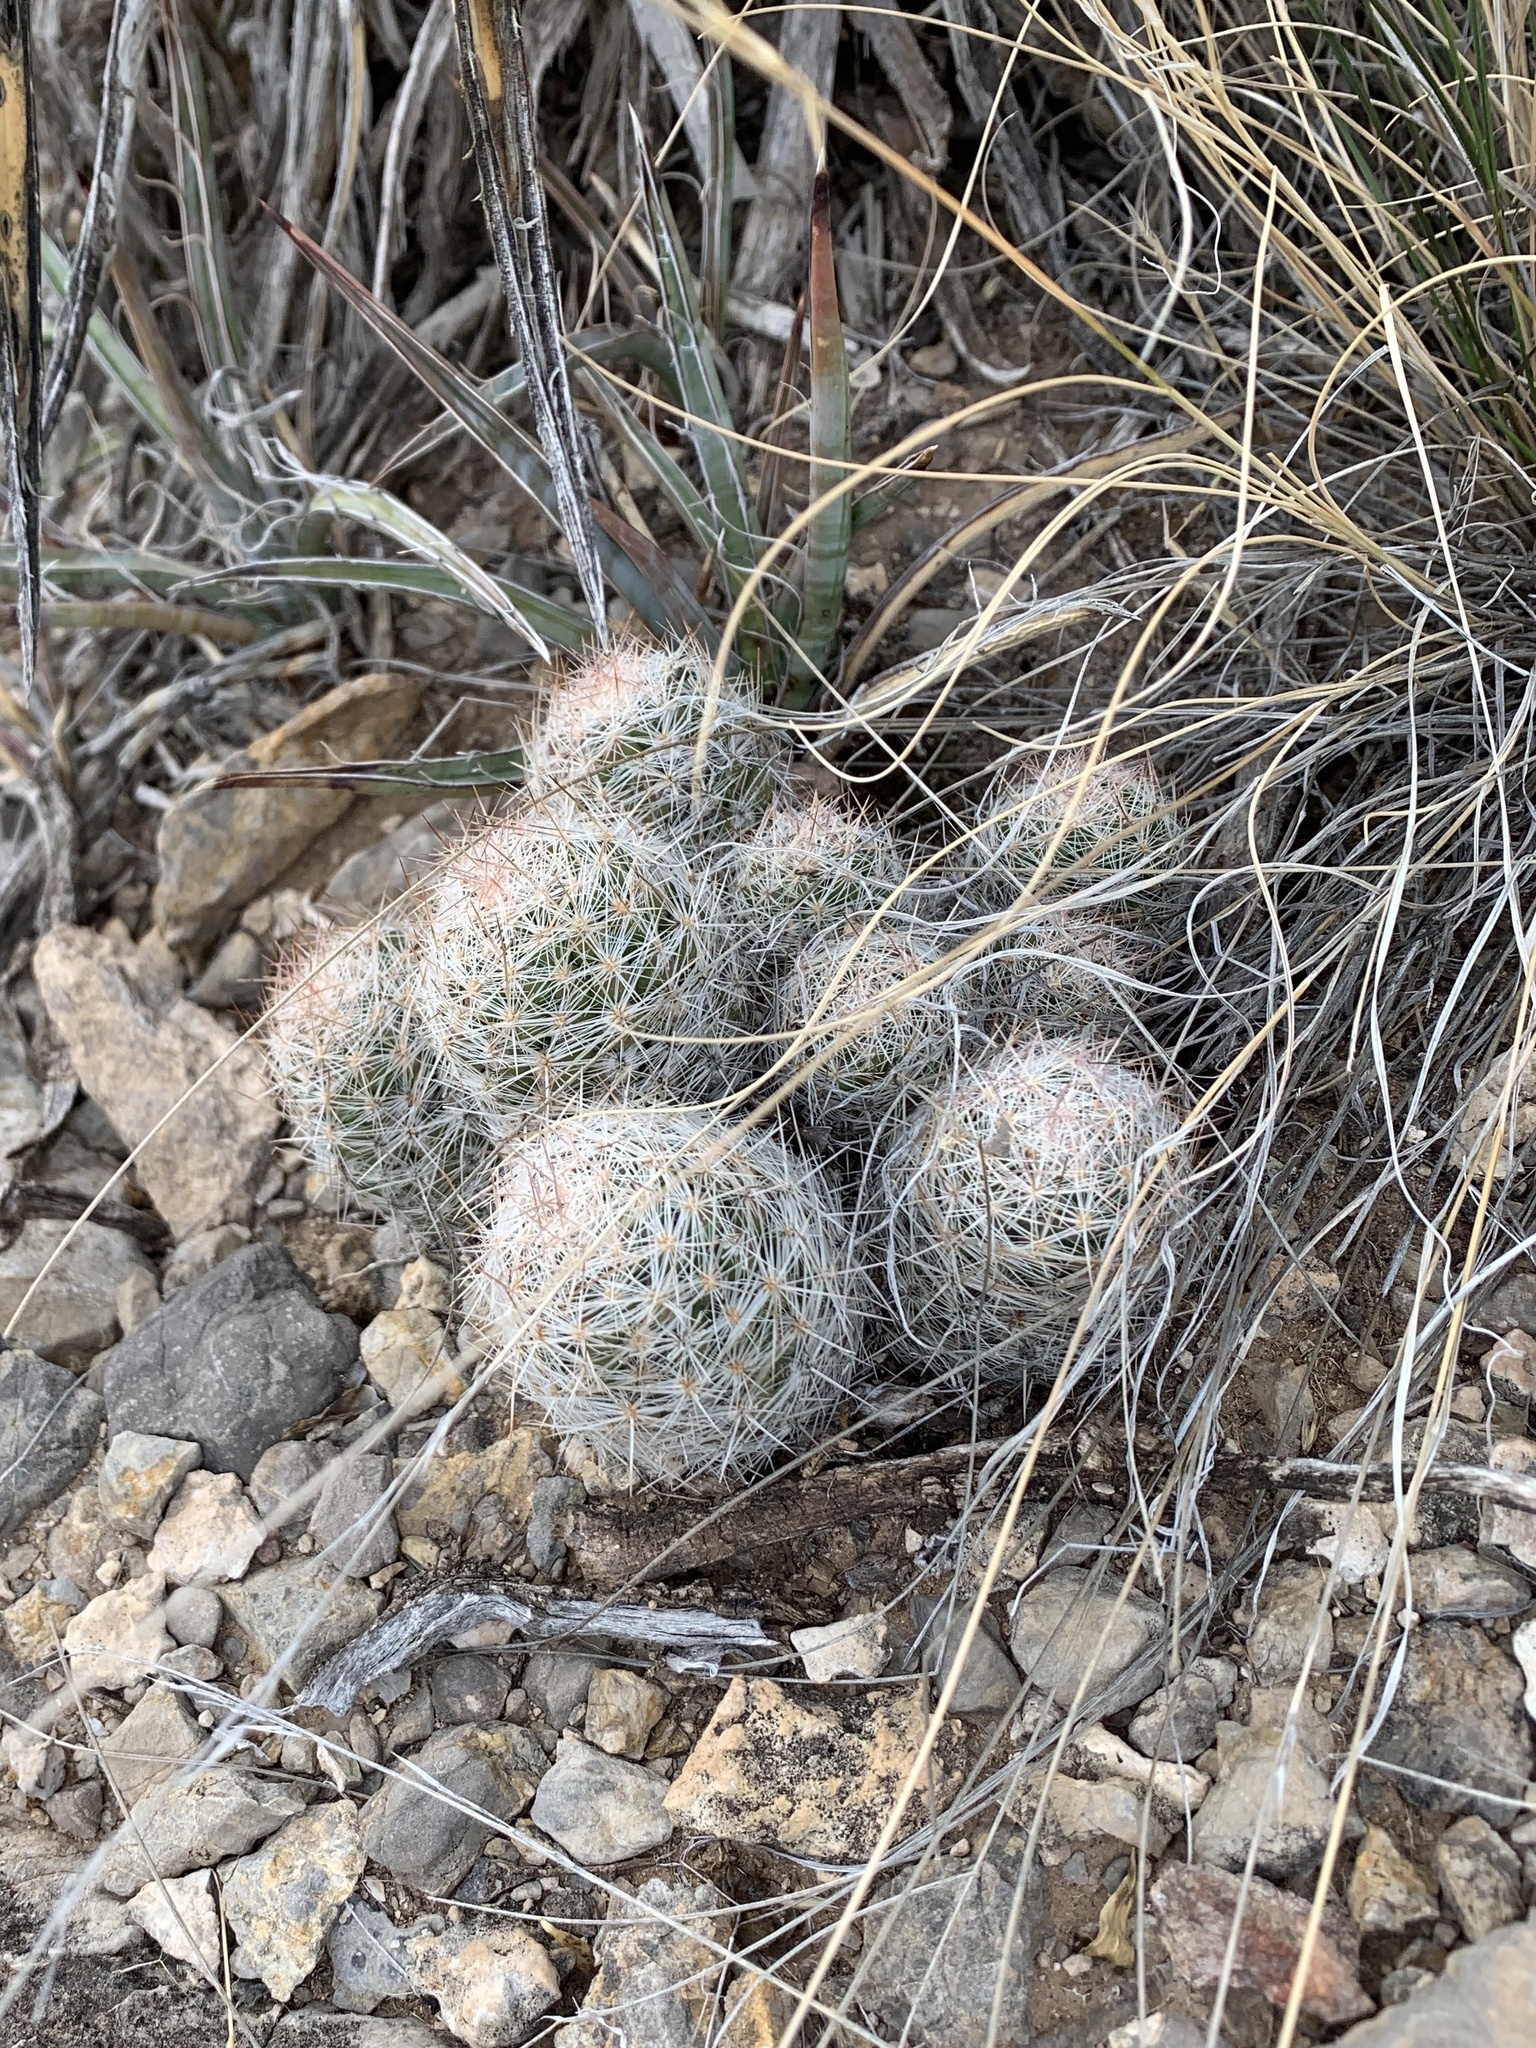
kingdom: Plantae
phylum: Tracheophyta
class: Magnoliopsida
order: Caryophyllales
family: Cactaceae
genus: Pelecyphora
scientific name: Pelecyphora tuberculosa
